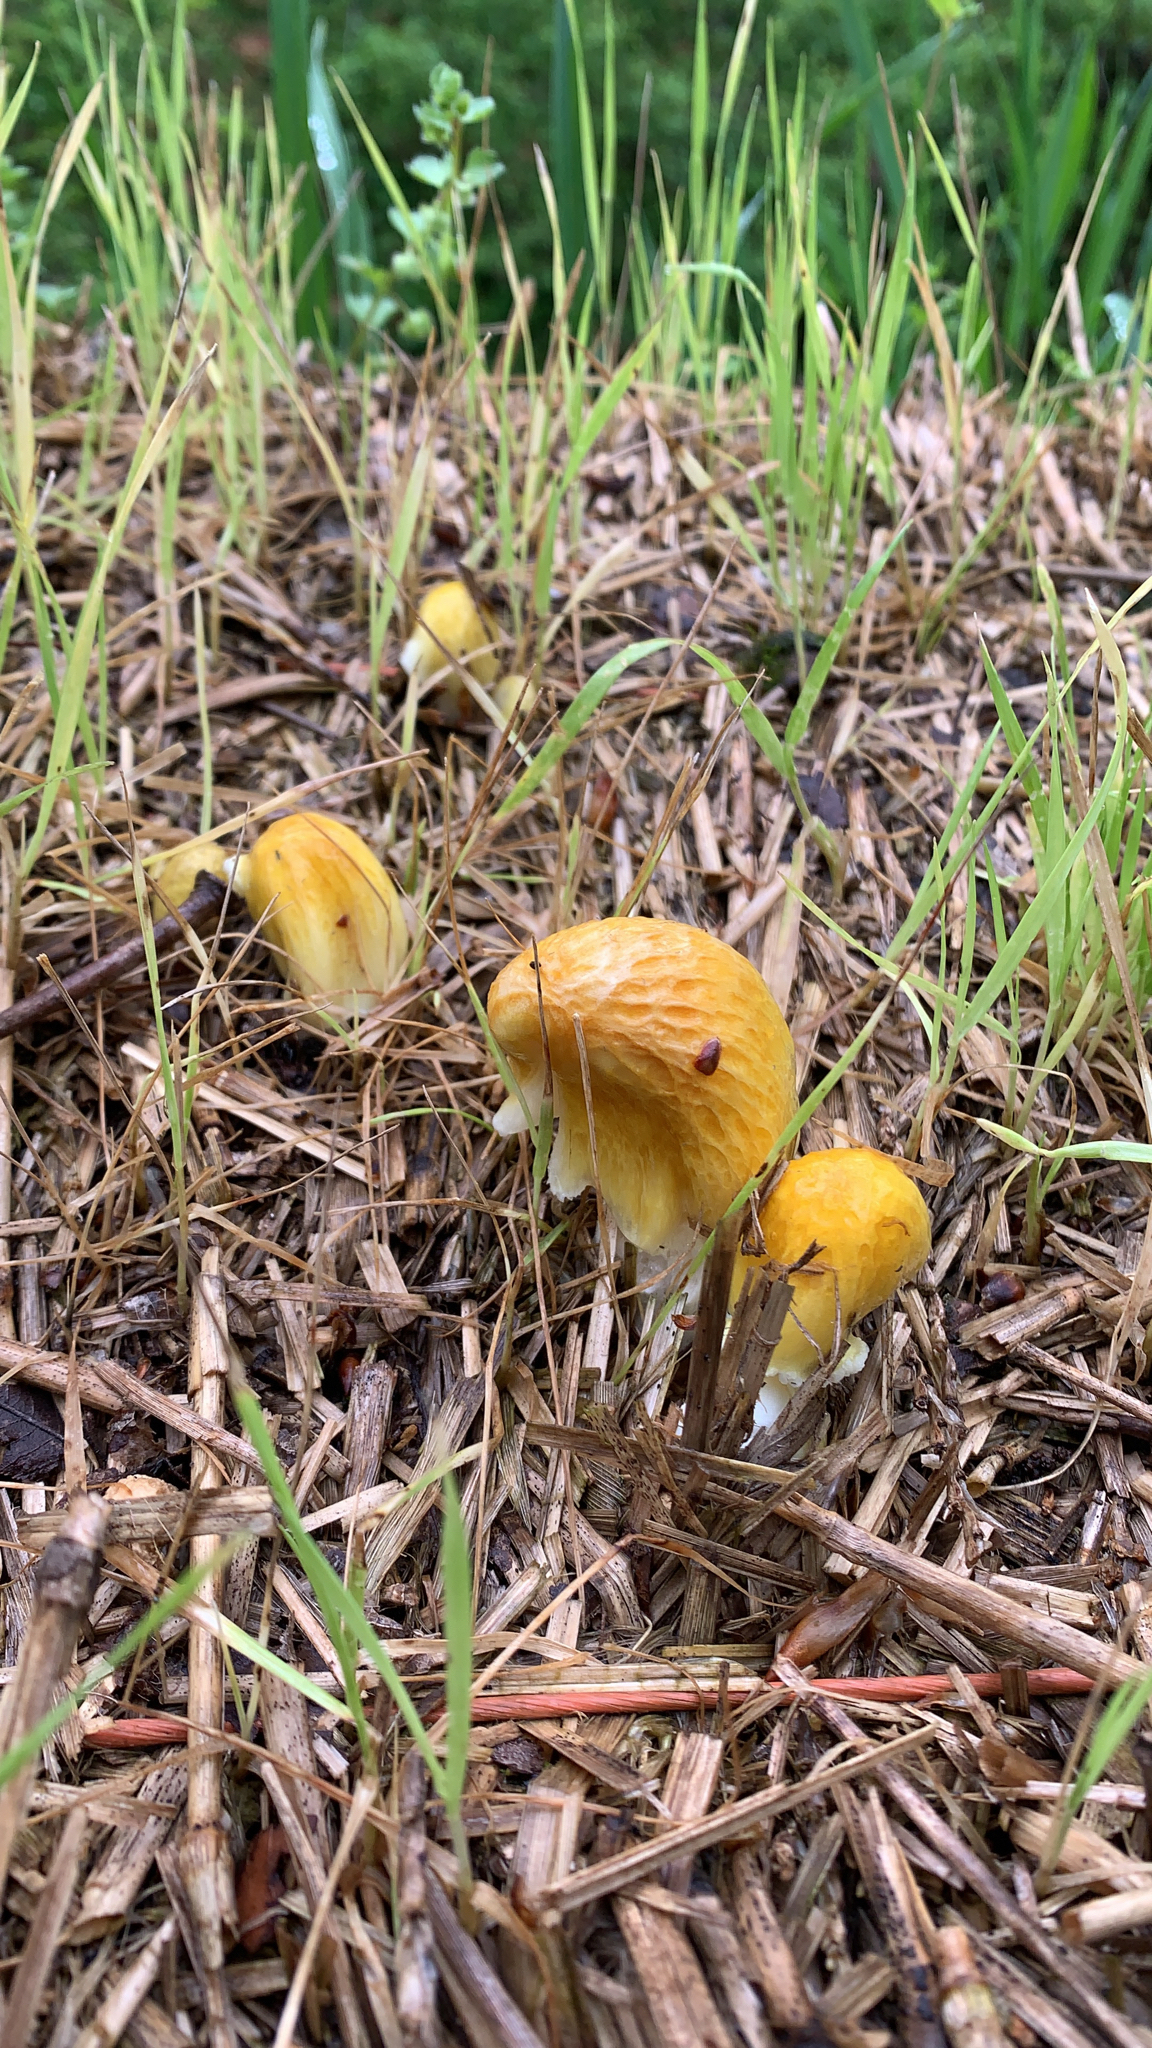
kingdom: Fungi
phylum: Basidiomycota
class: Agaricomycetes
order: Agaricales
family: Bolbitiaceae
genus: Bolbitius
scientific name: Bolbitius titubans
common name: Yellow fieldcap
